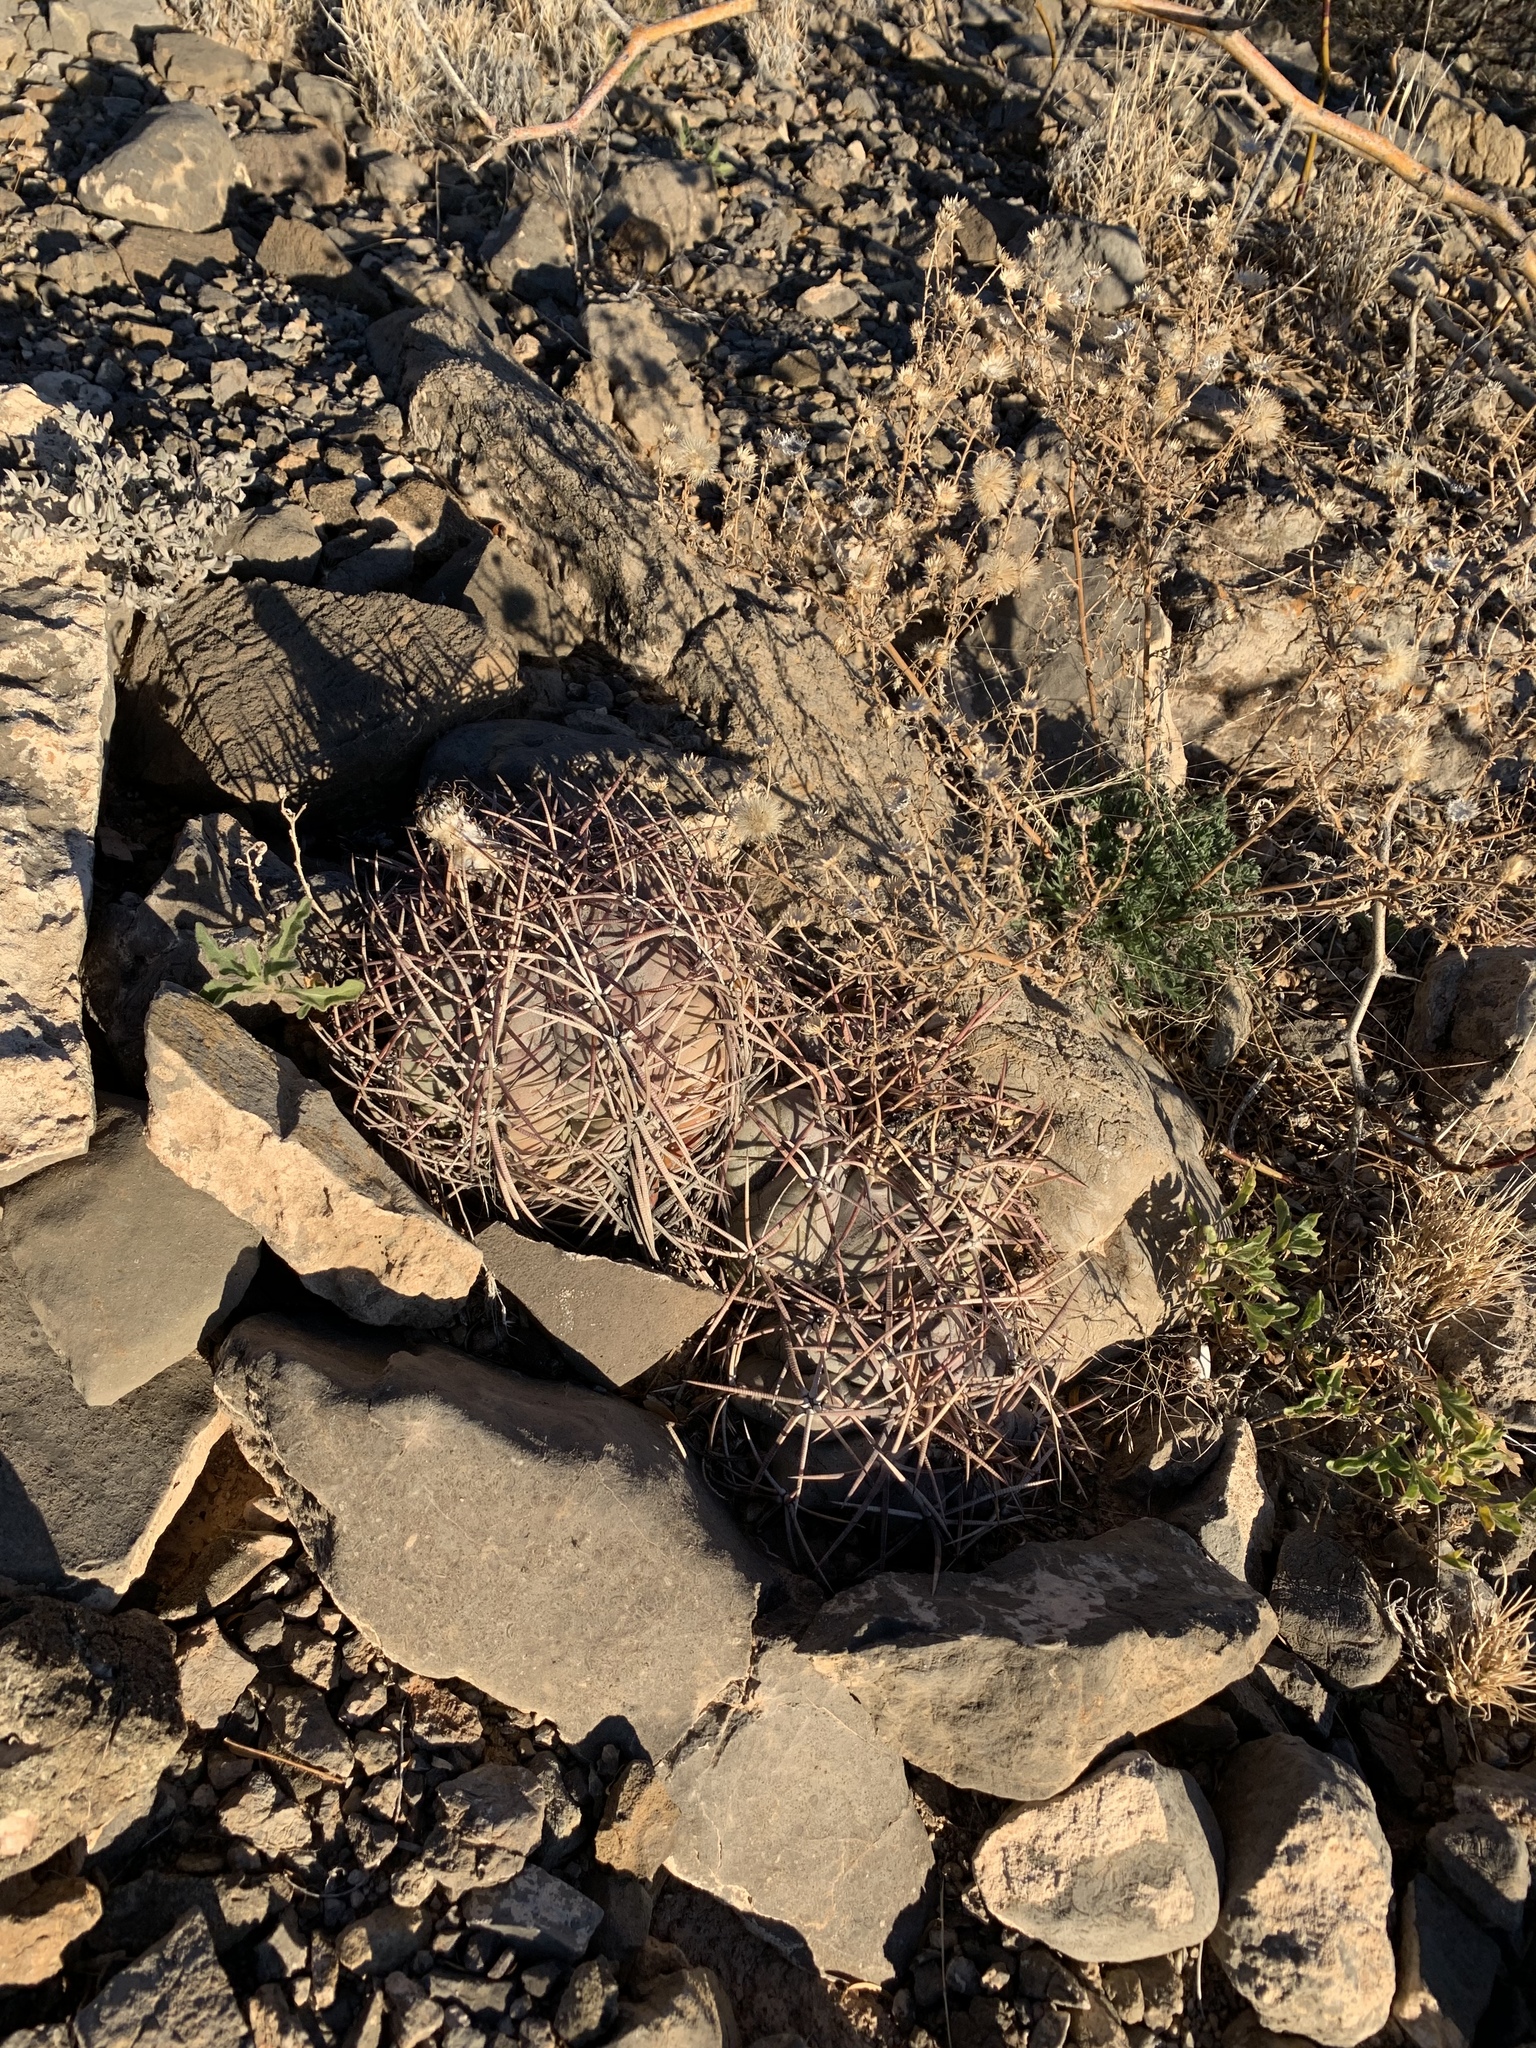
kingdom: Plantae
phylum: Tracheophyta
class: Magnoliopsida
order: Caryophyllales
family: Cactaceae
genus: Echinocactus
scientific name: Echinocactus horizonthalonius
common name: Devilshead
